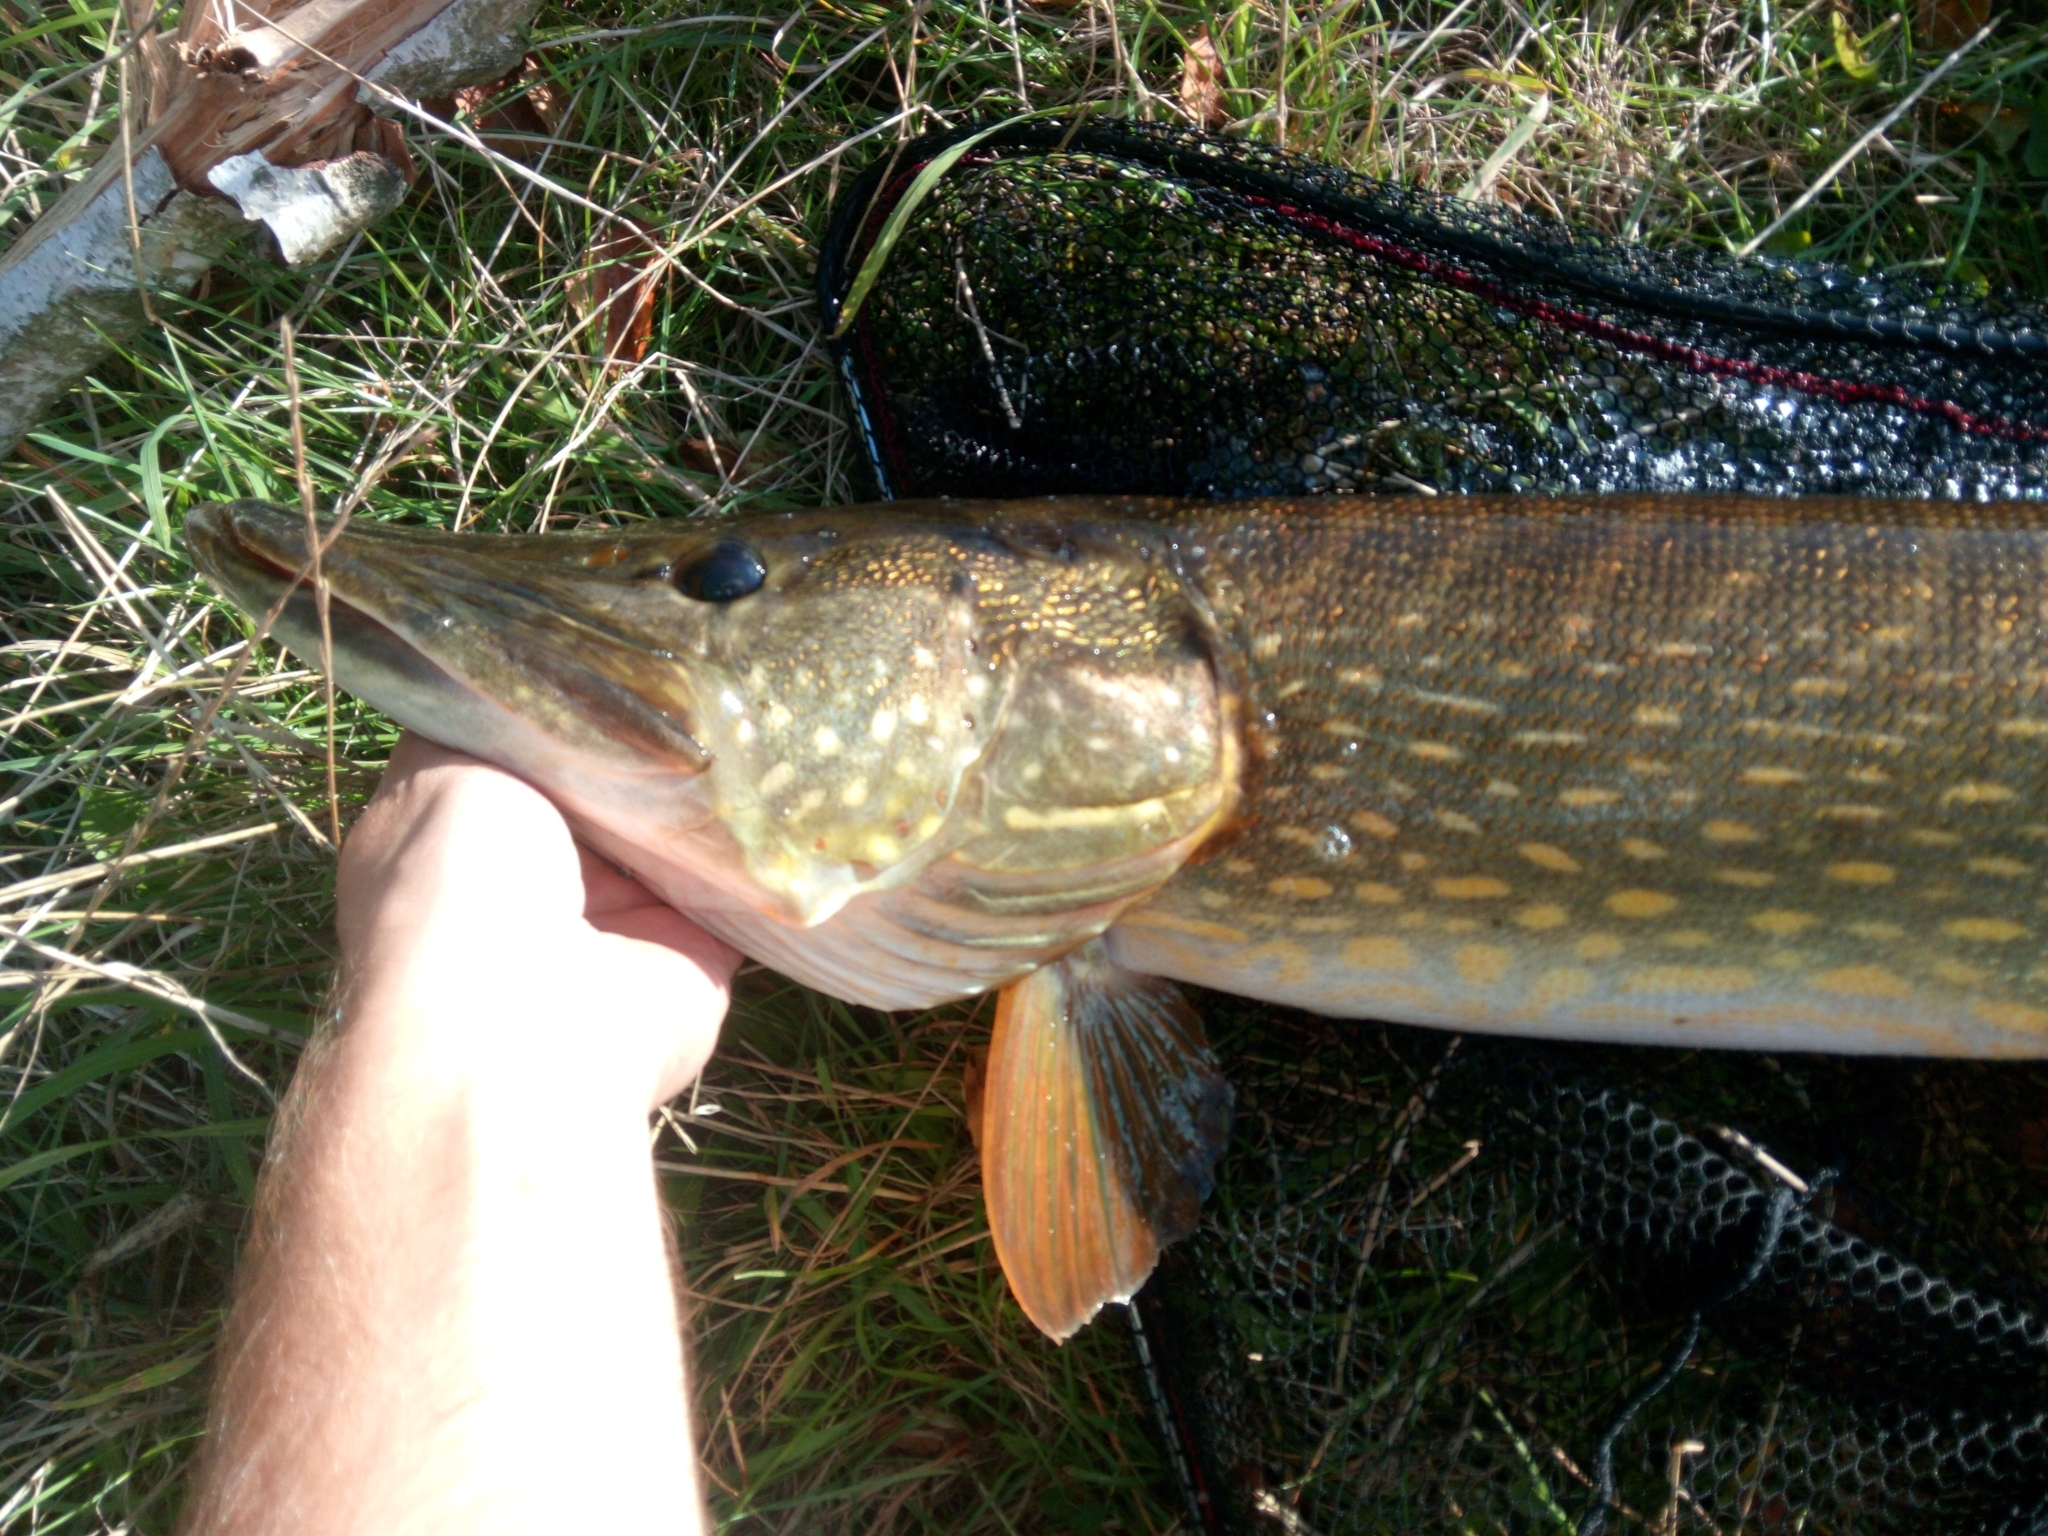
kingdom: Animalia
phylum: Chordata
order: Esociformes
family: Esocidae
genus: Esox
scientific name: Esox lucius
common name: Northern pike
